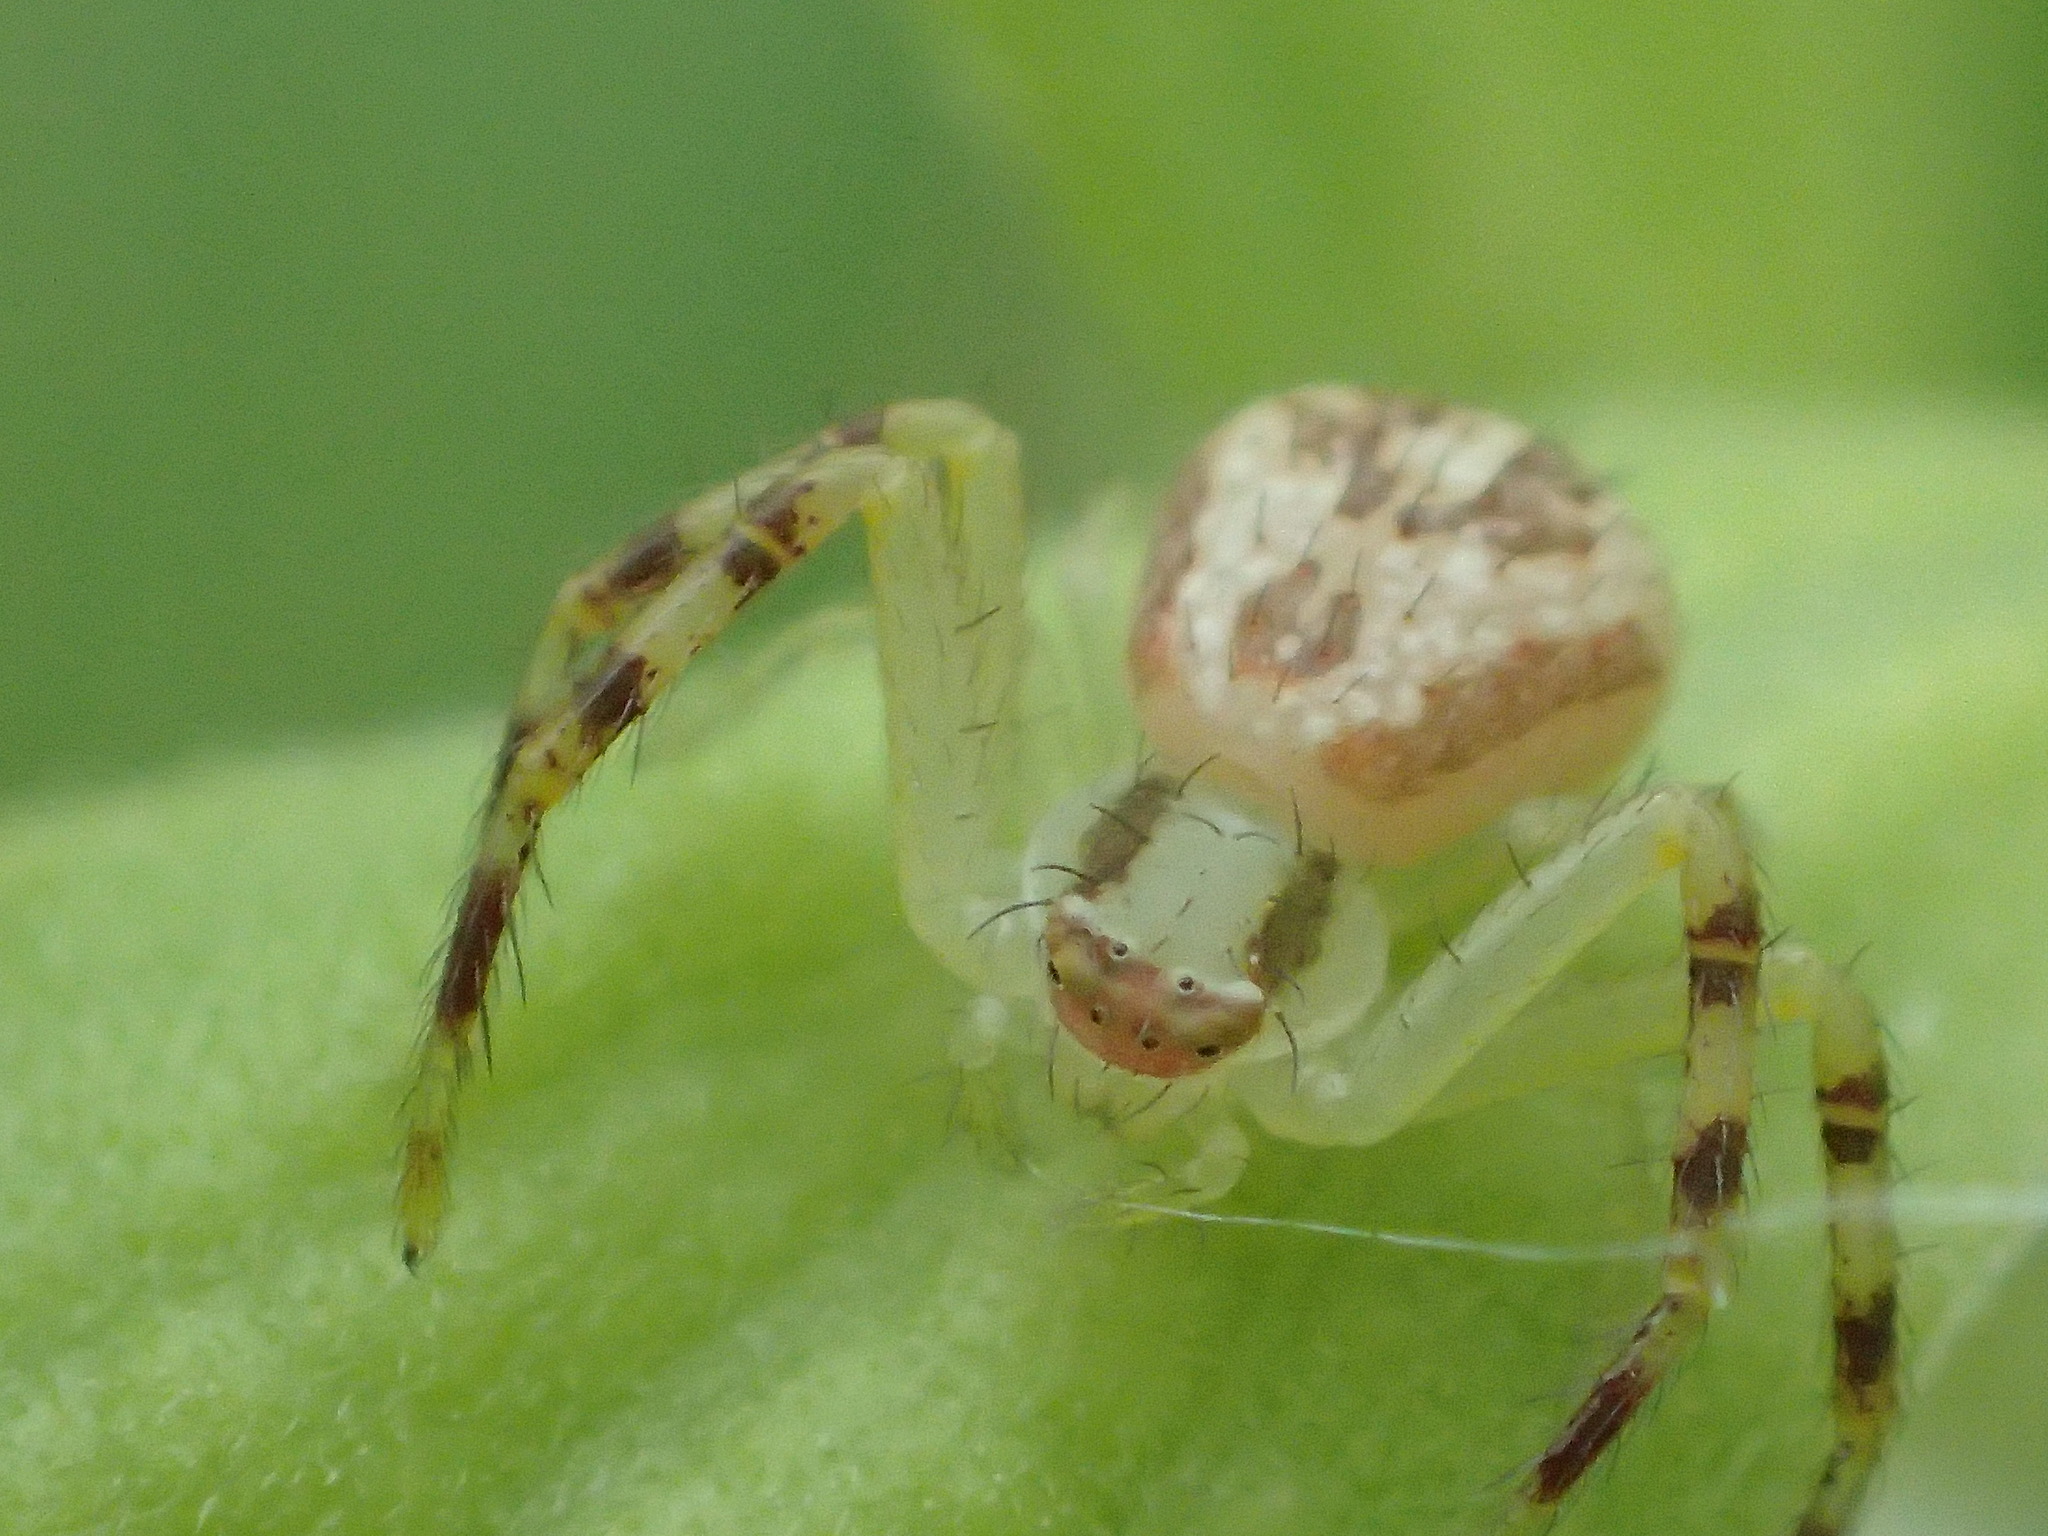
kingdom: Animalia
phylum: Arthropoda
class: Arachnida
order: Araneae
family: Thomisidae
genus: Mecaphesa
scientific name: Mecaphesa asperata
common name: Crab spiders
